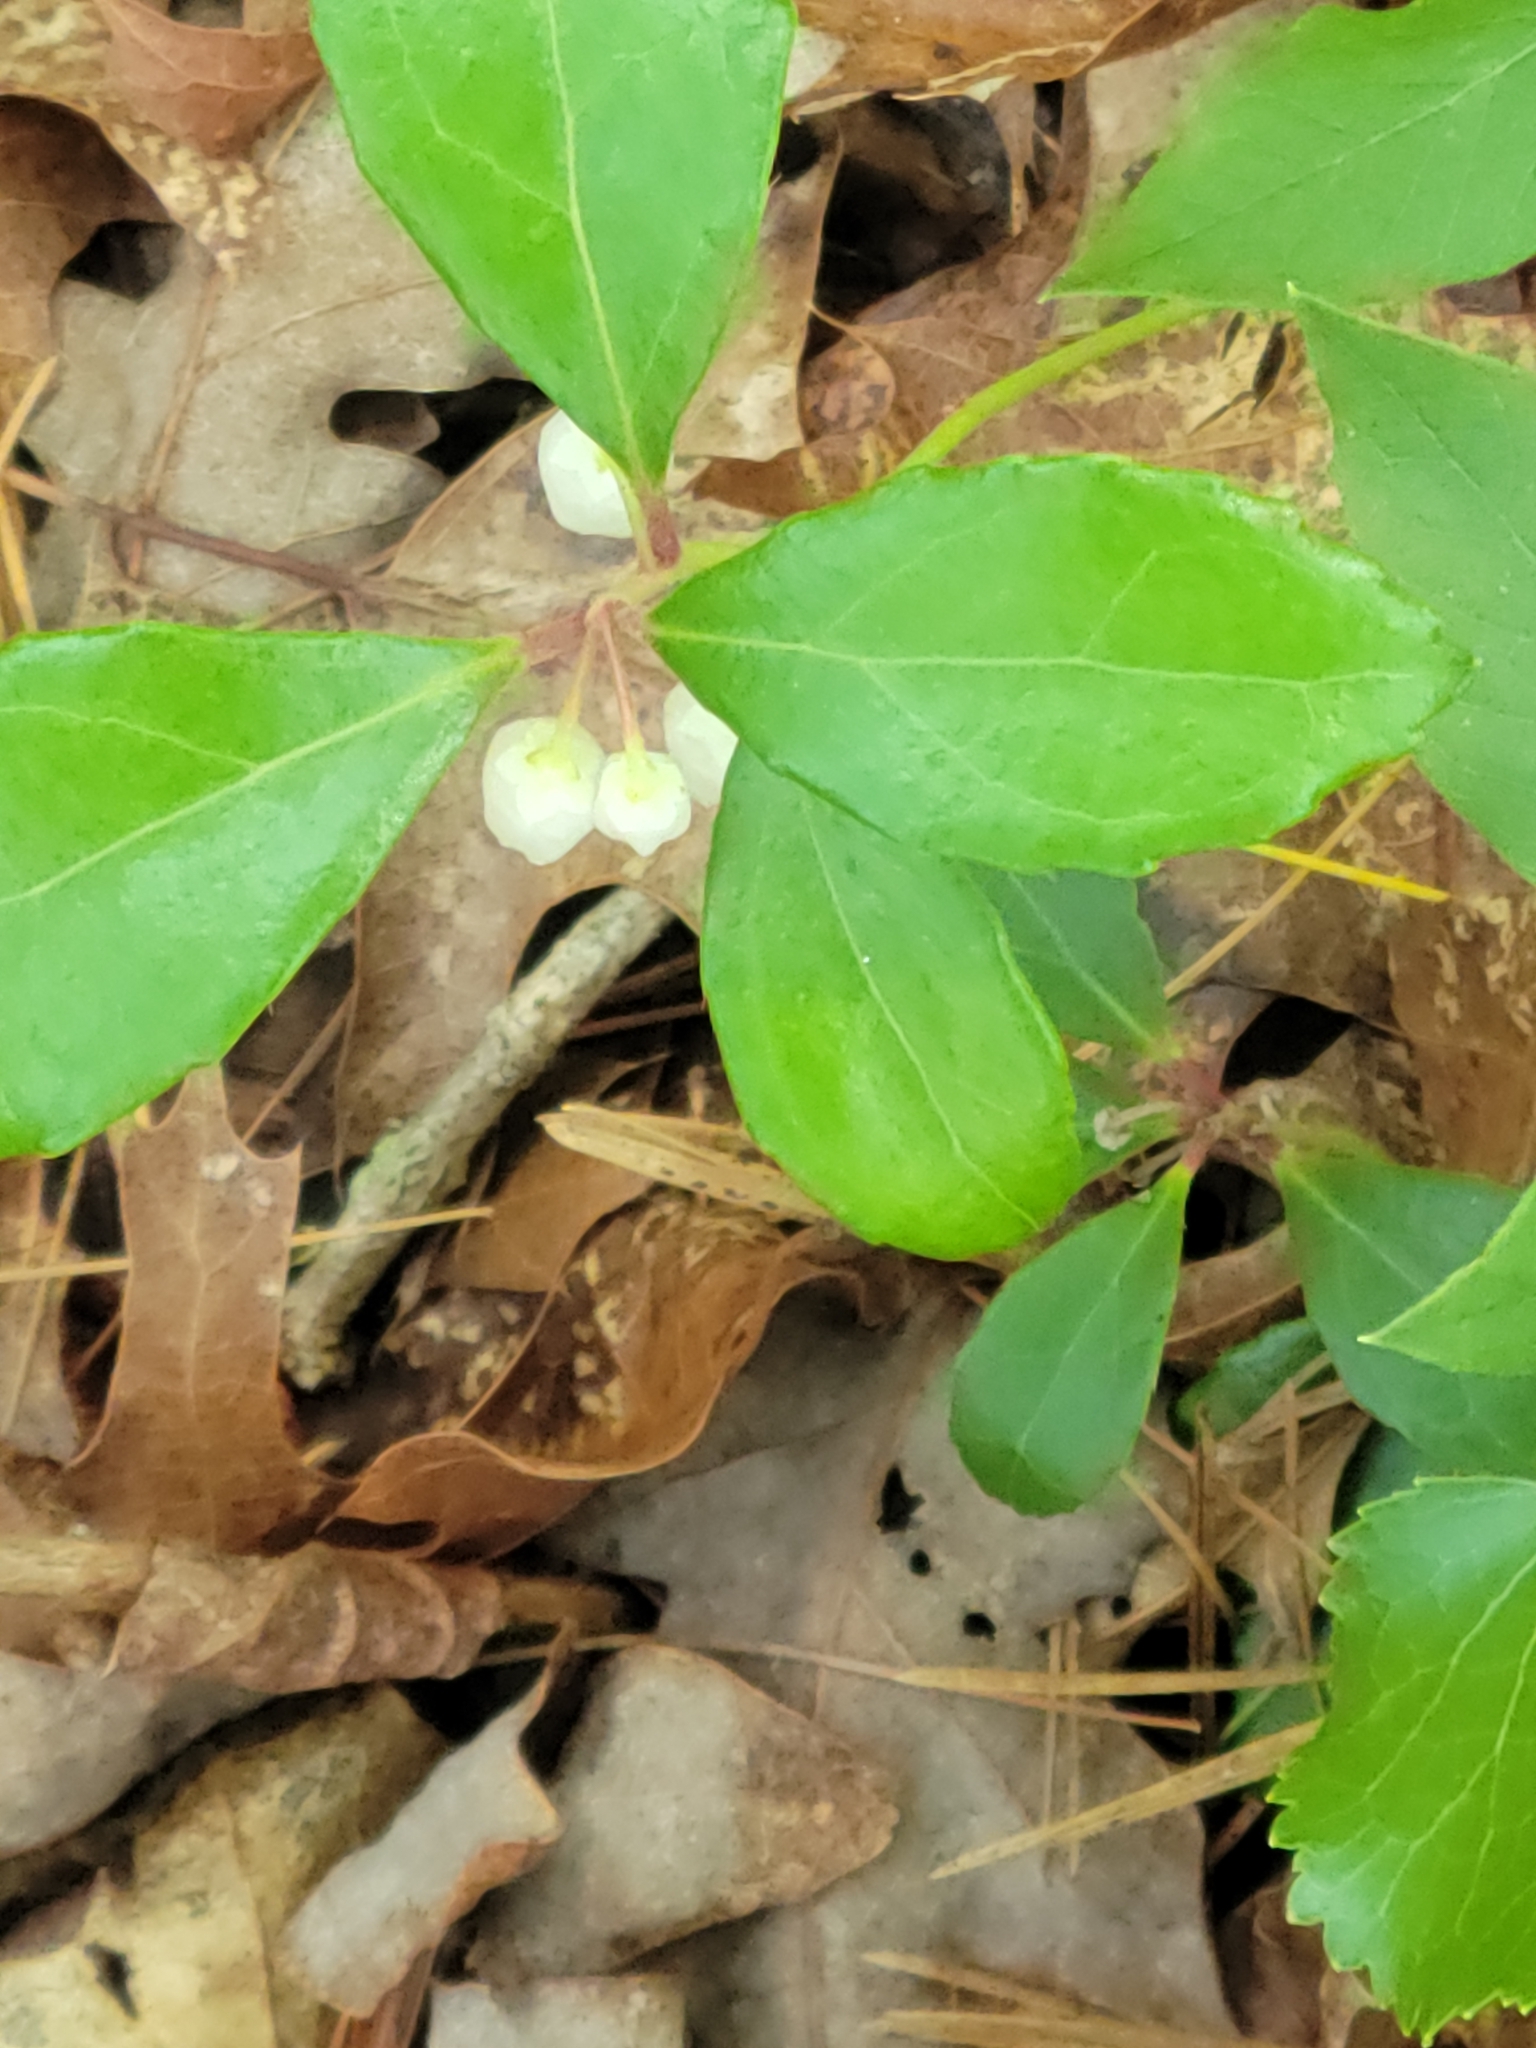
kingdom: Plantae
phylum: Tracheophyta
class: Magnoliopsida
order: Ericales
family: Ericaceae
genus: Gaultheria
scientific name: Gaultheria procumbens
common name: Checkerberry
